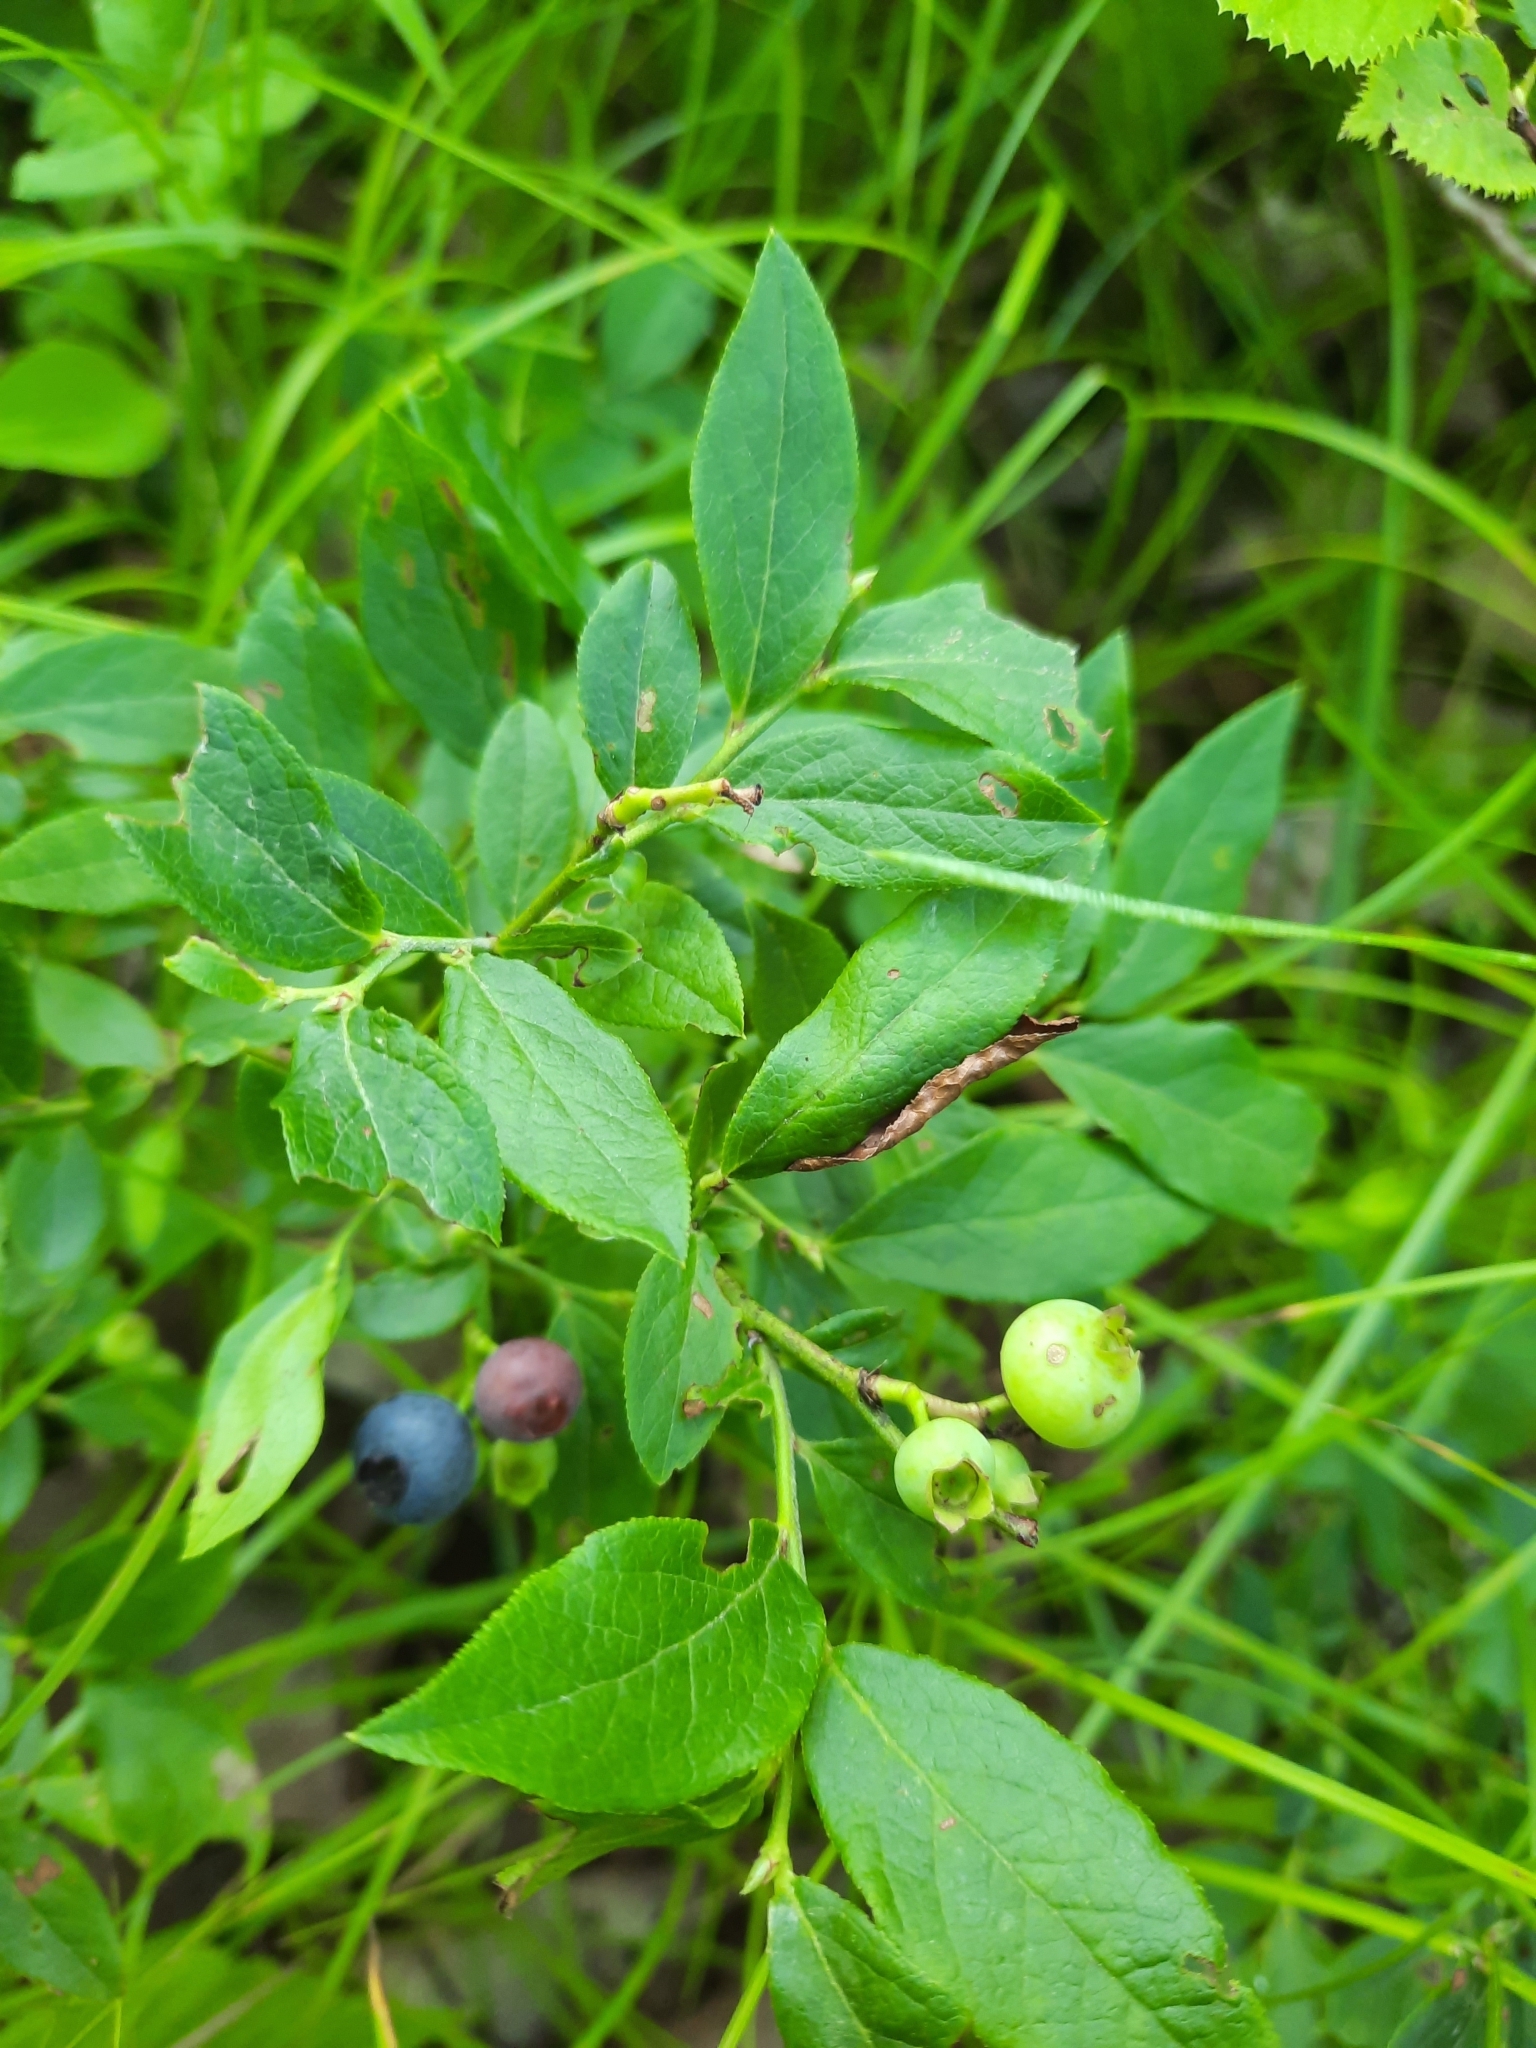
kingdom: Plantae
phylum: Tracheophyta
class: Magnoliopsida
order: Ericales
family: Ericaceae
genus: Vaccinium
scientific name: Vaccinium angustifolium
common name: Early lowbush blueberry
